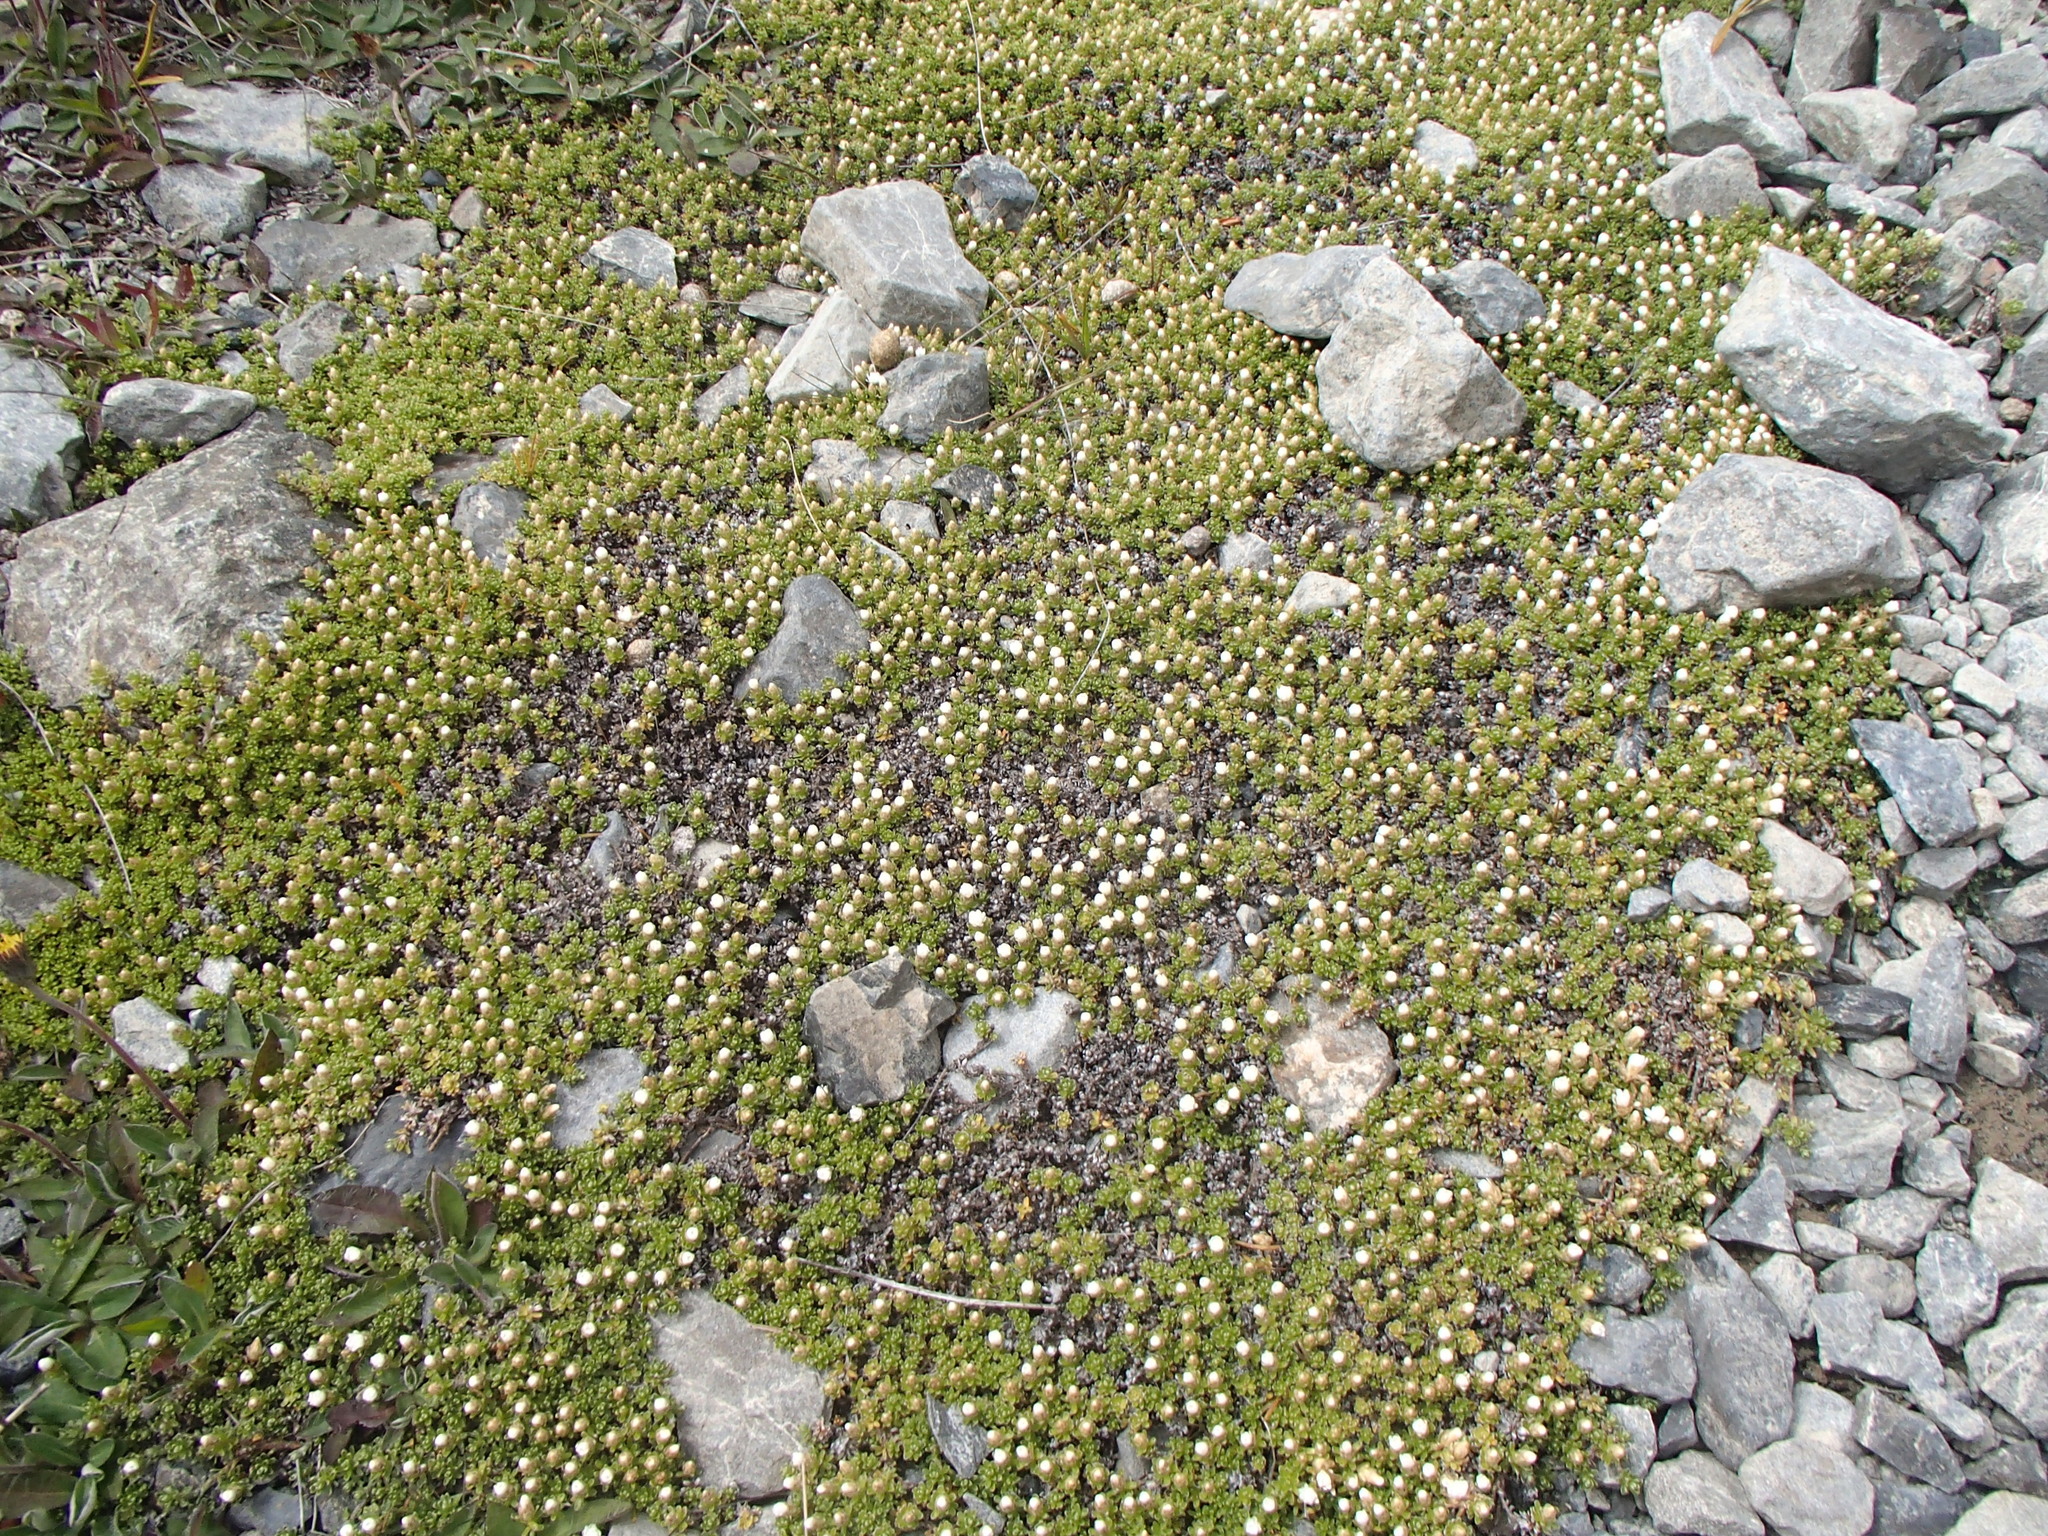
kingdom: Plantae
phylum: Tracheophyta
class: Magnoliopsida
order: Asterales
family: Asteraceae
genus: Raoulia
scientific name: Raoulia subsericea
